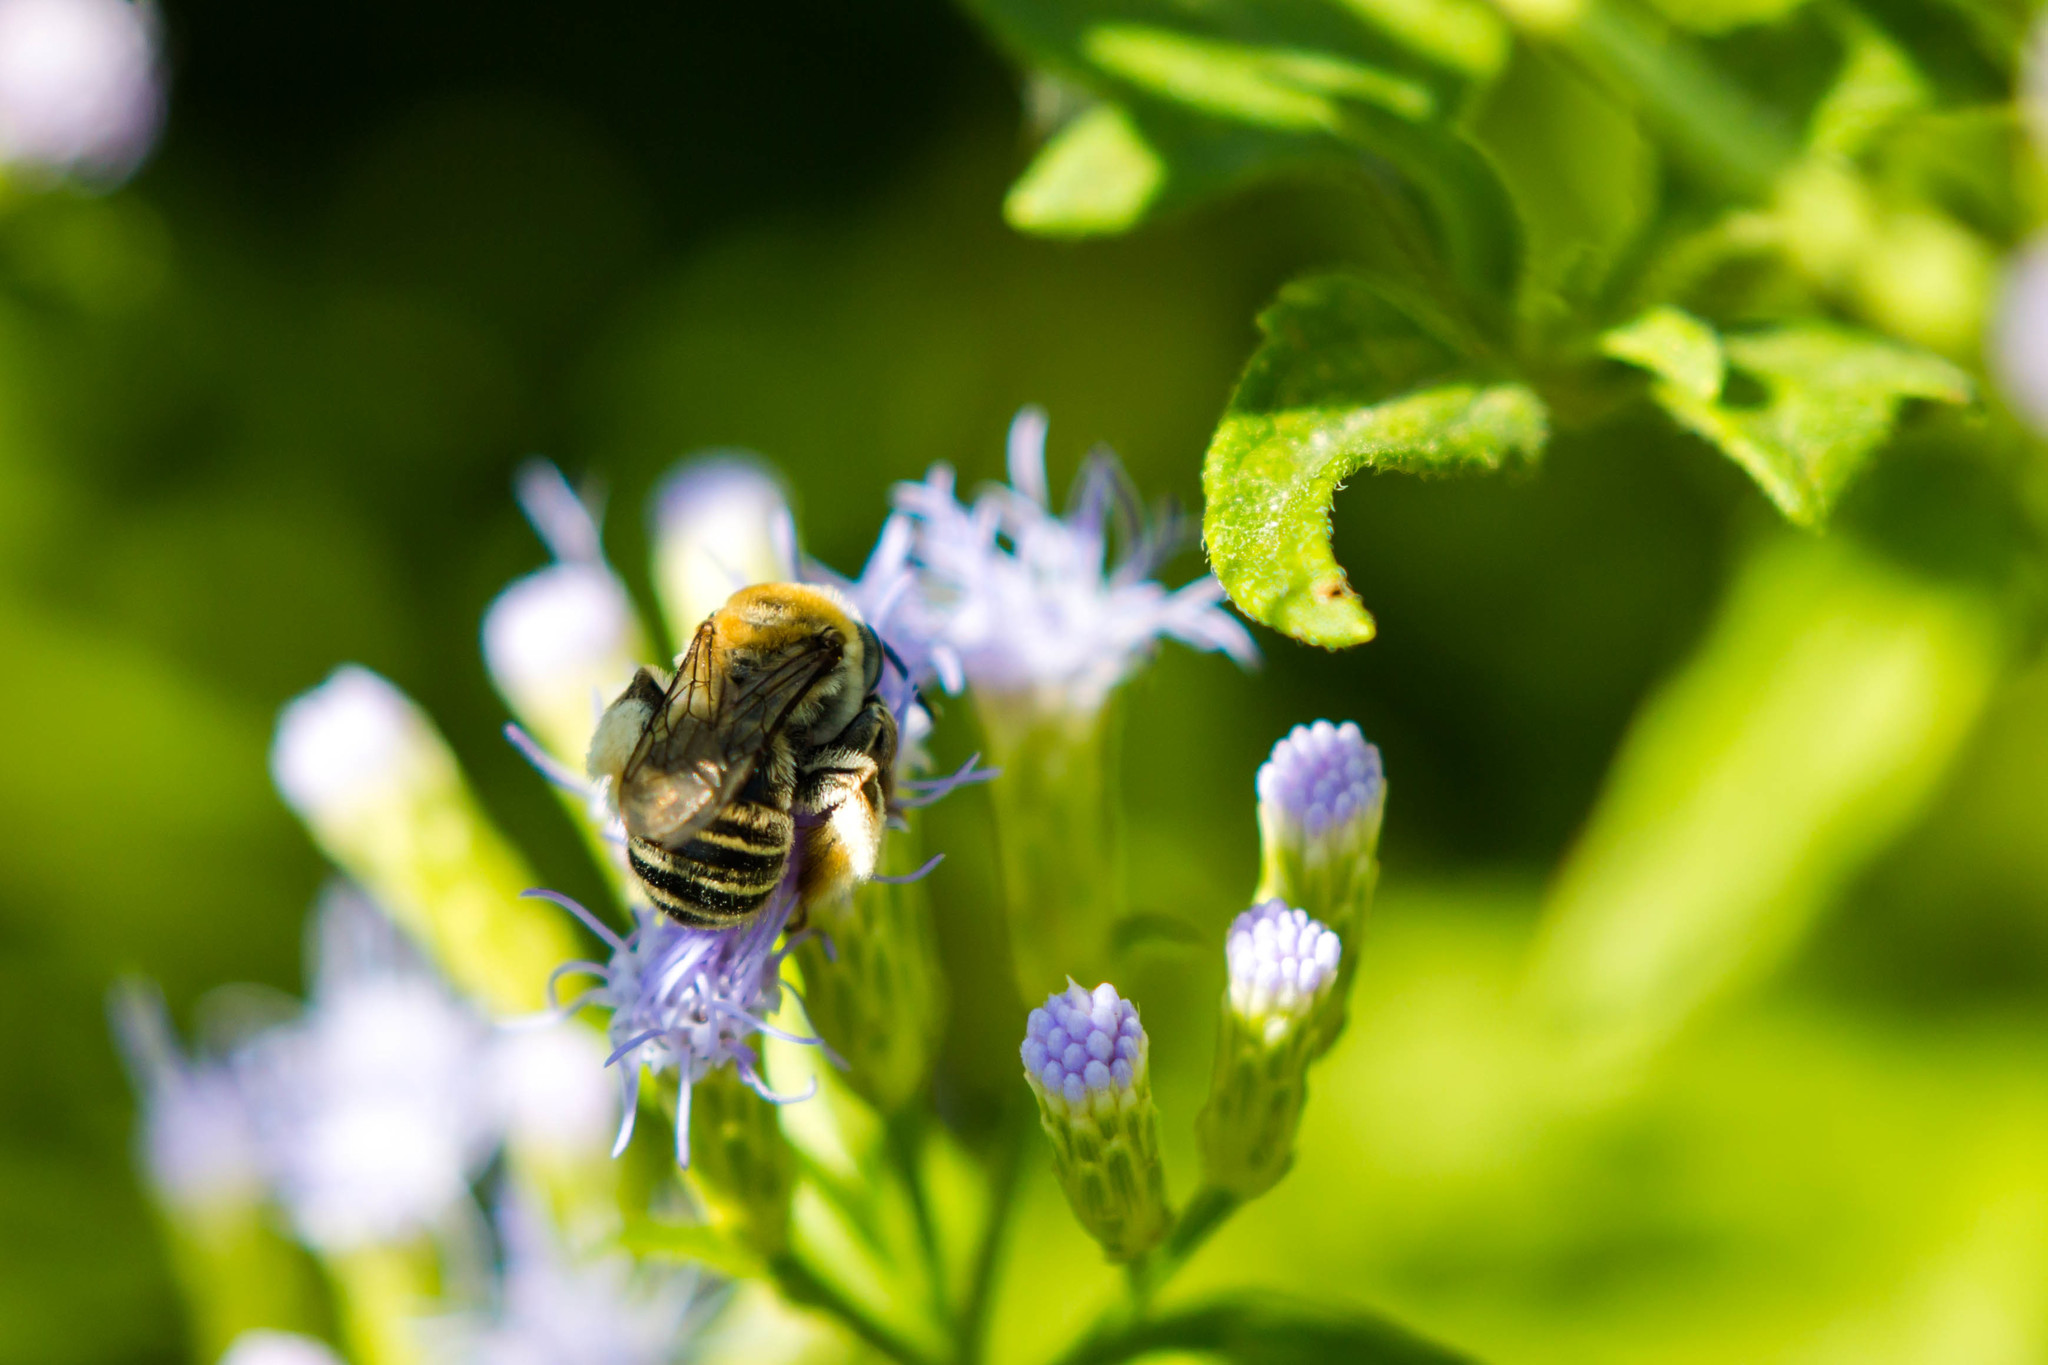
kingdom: Animalia
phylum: Arthropoda
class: Insecta
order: Hymenoptera
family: Apidae
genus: Melissodes
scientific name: Melissodes tepaneca
